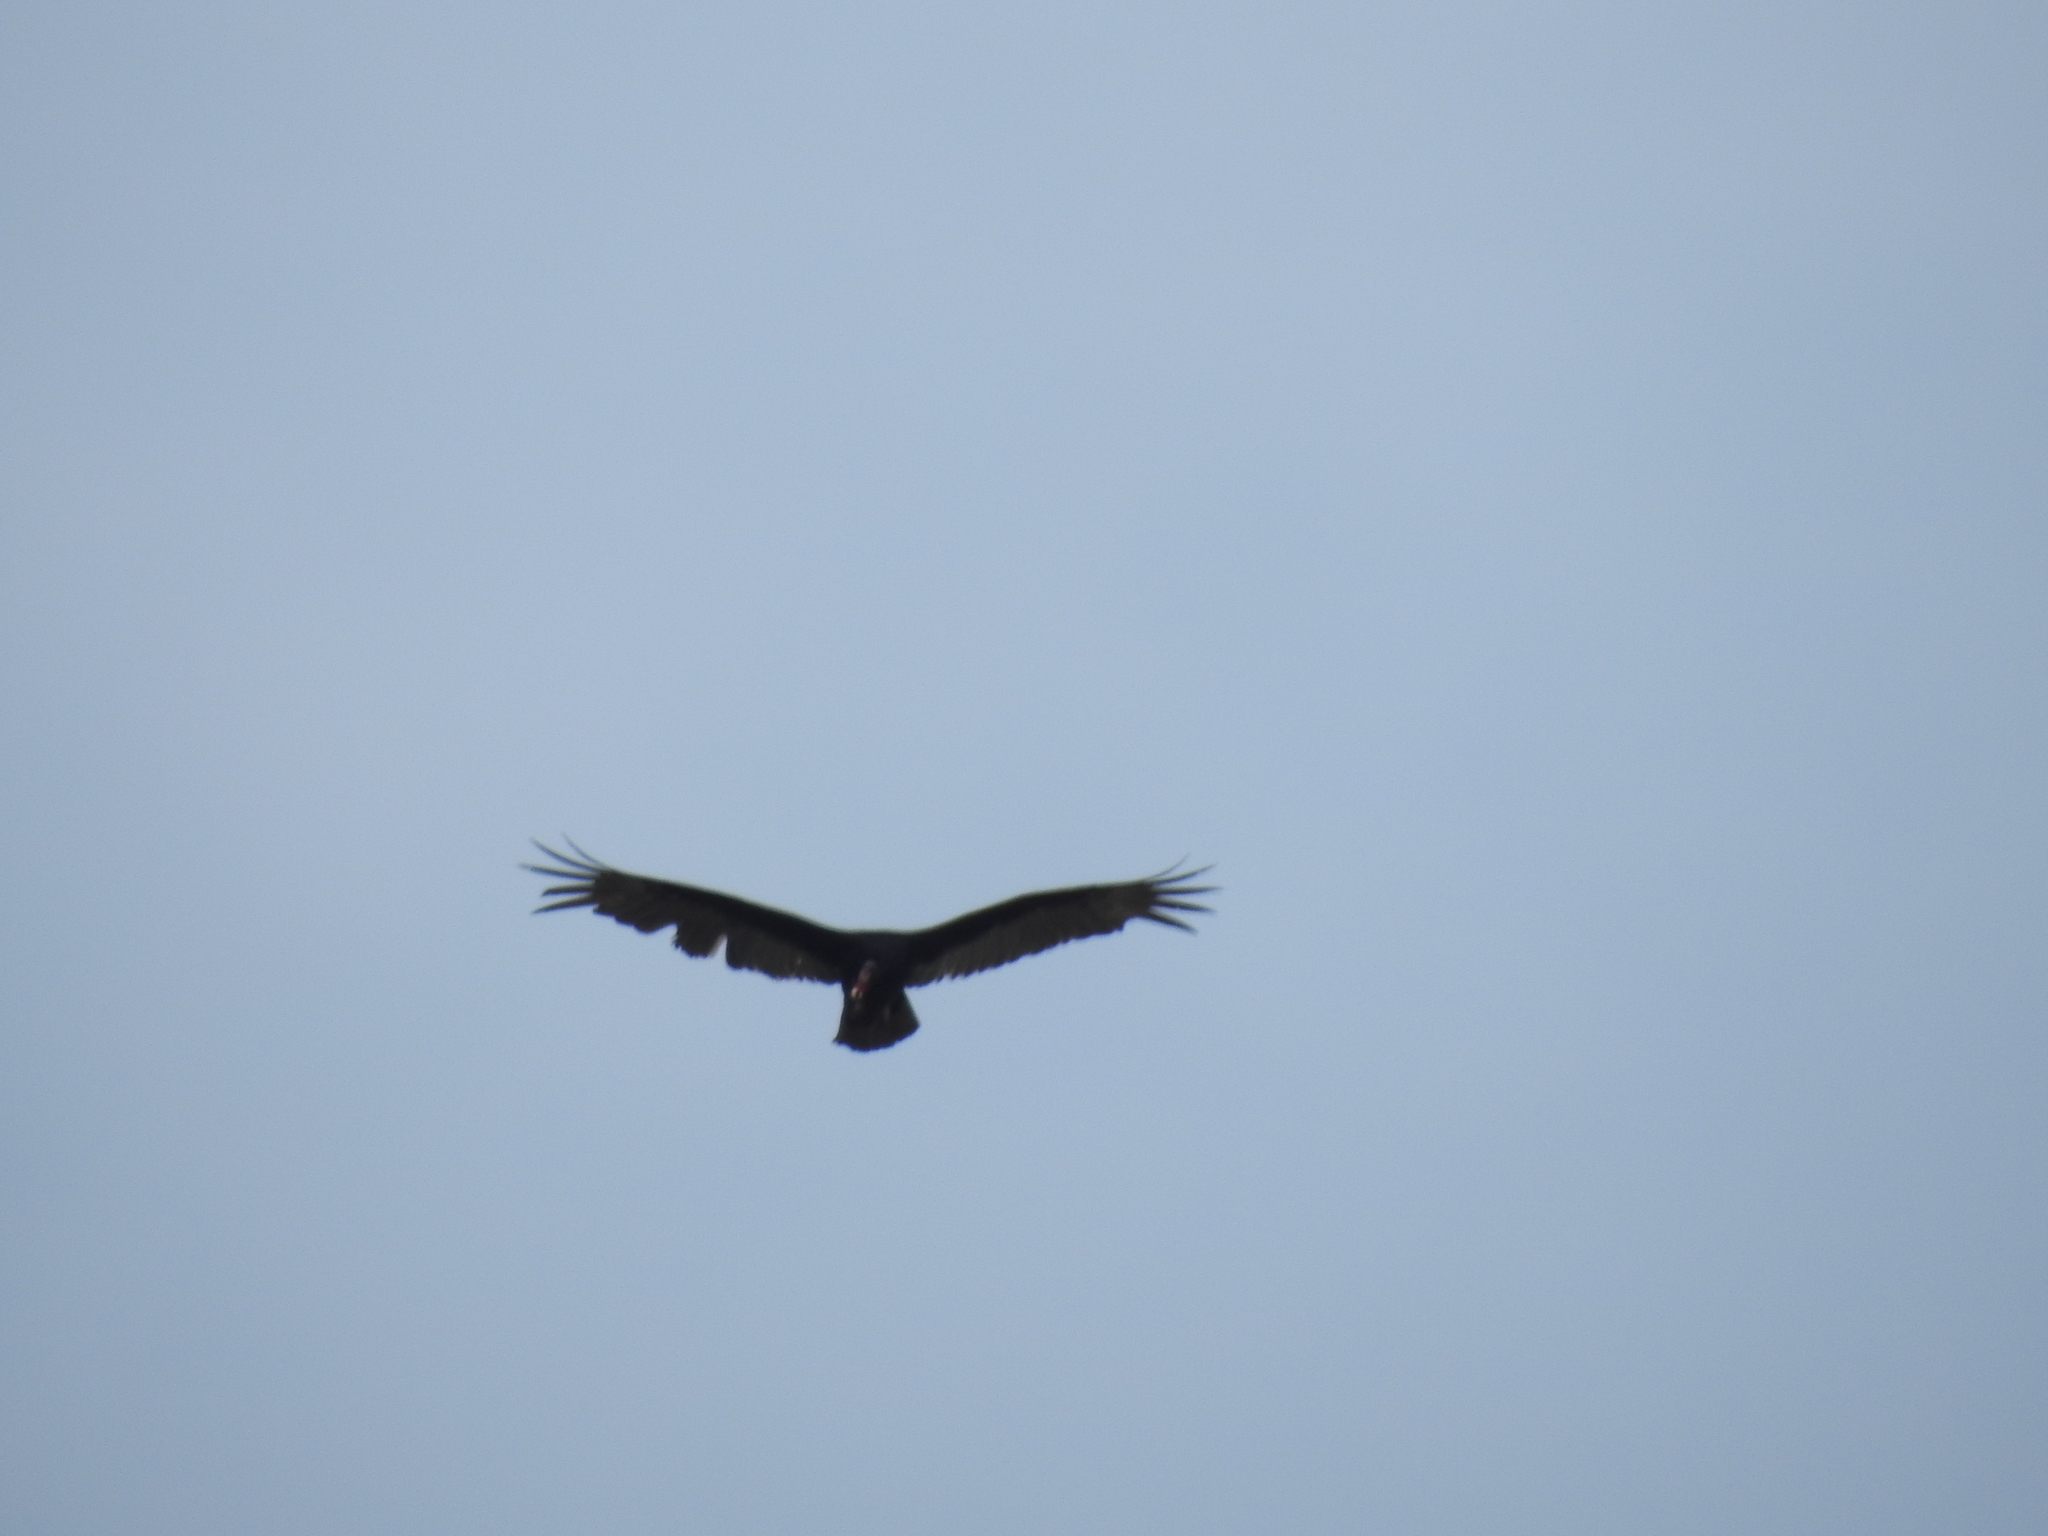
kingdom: Animalia
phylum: Chordata
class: Aves
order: Accipitriformes
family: Cathartidae
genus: Cathartes
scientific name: Cathartes aura
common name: Turkey vulture
